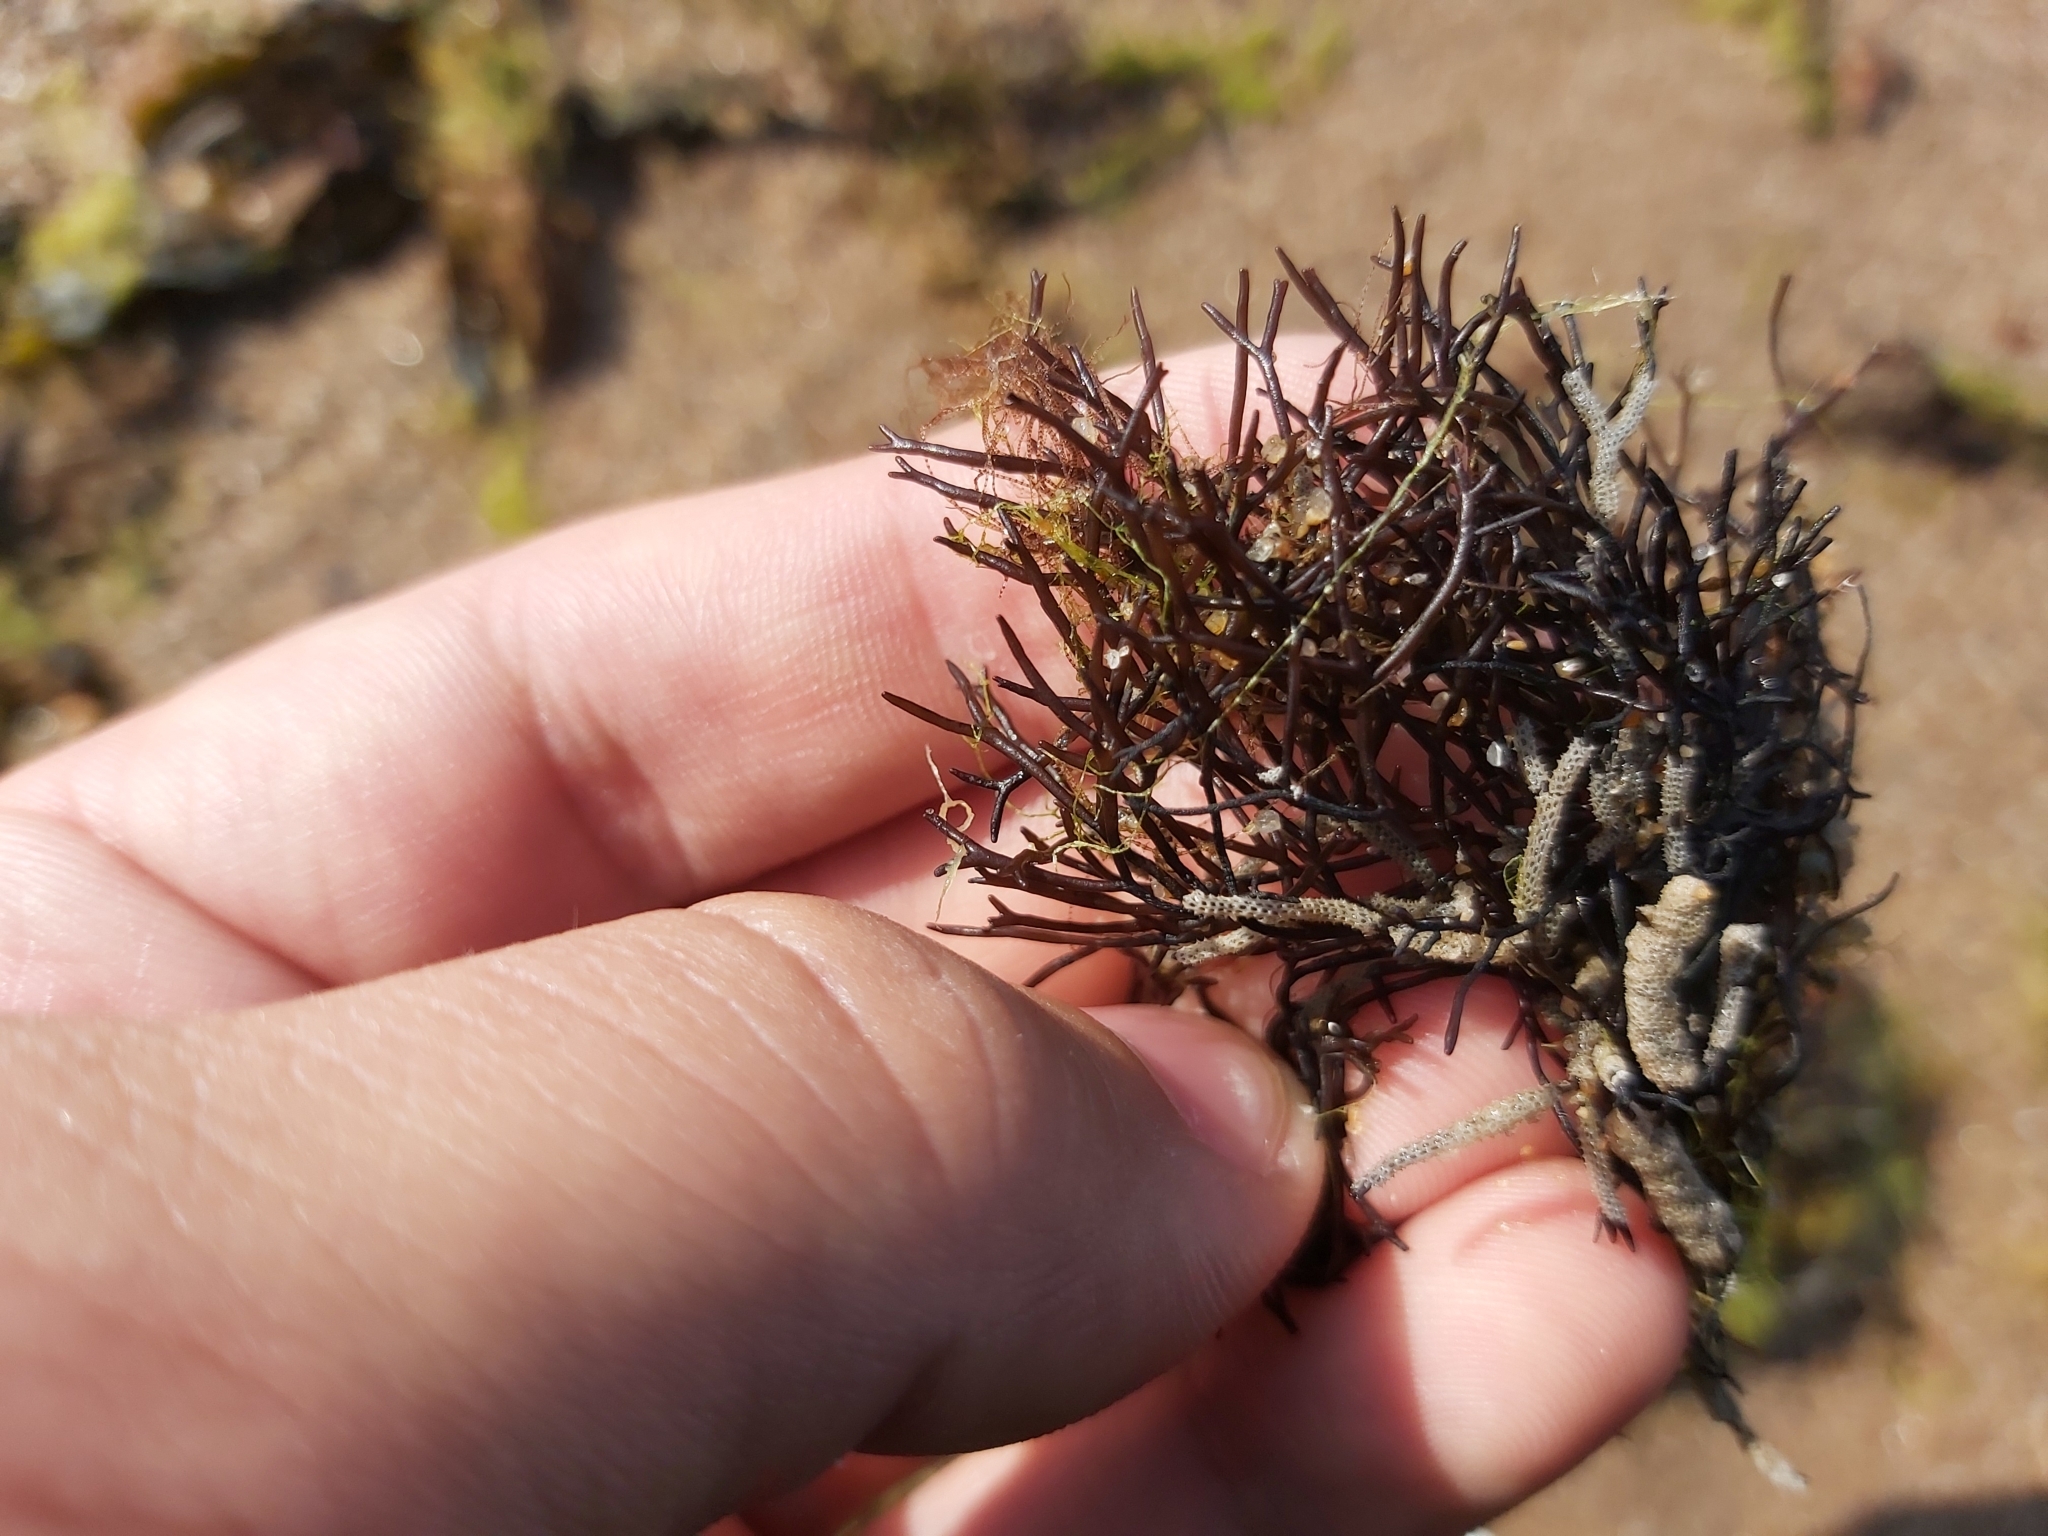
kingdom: Plantae
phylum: Rhodophyta
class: Florideophyceae
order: Gigartinales
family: Furcellariaceae
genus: Furcellaria
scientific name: Furcellaria lumbricalis
